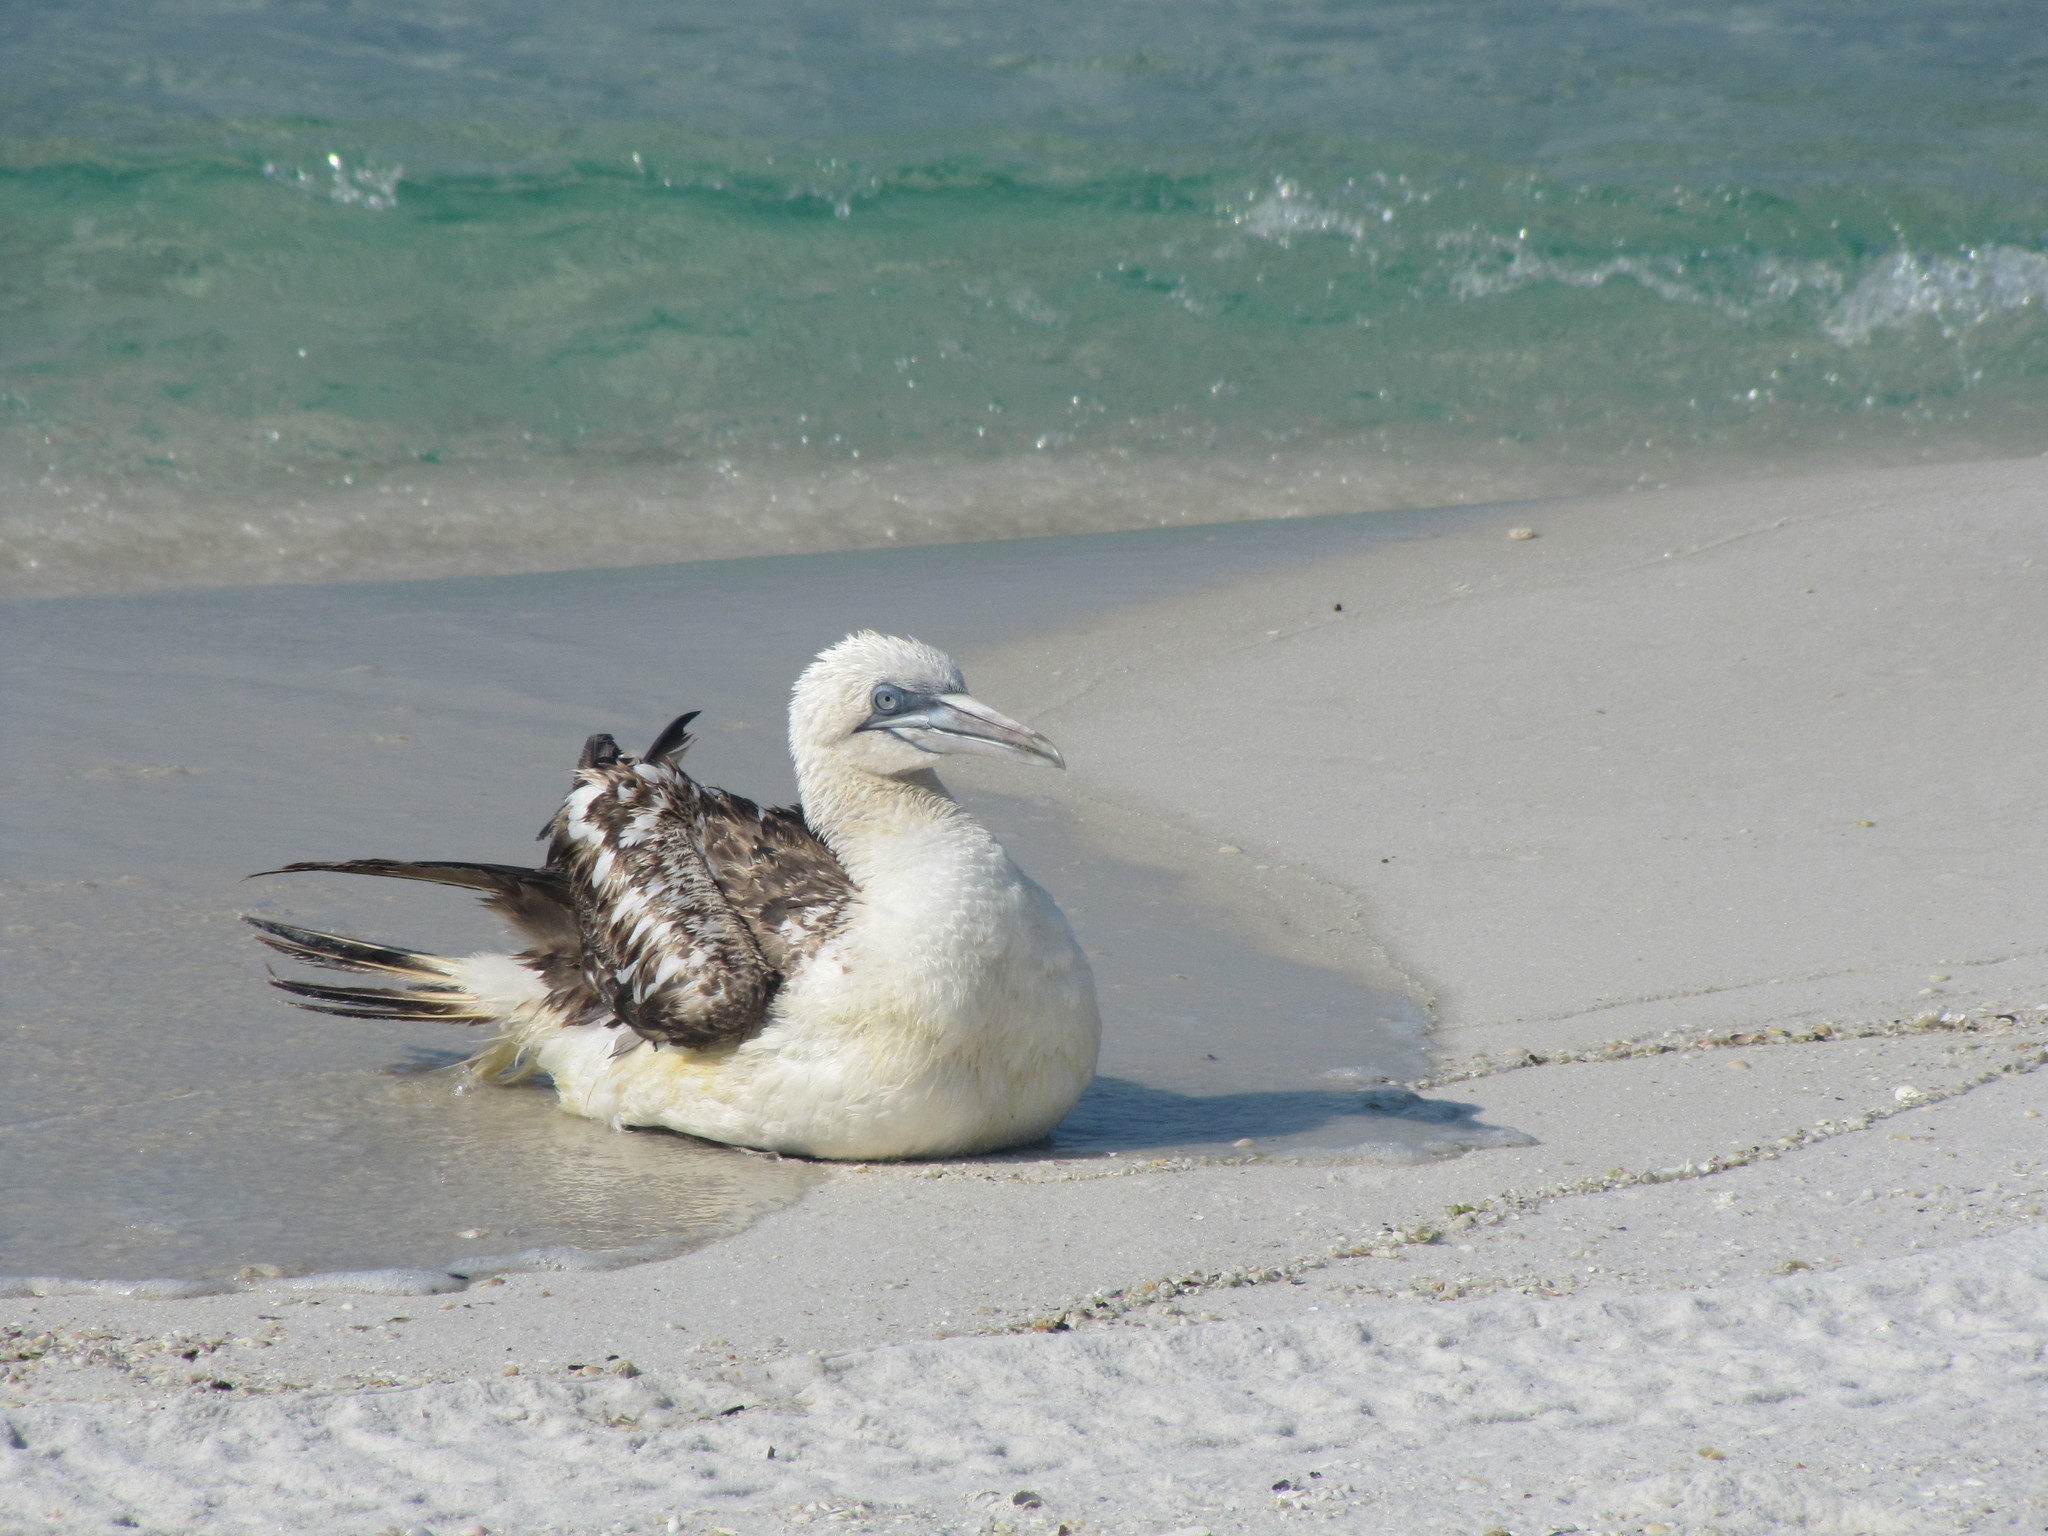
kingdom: Animalia
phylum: Chordata
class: Aves
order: Suliformes
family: Sulidae
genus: Morus
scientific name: Morus bassanus
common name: Northern gannet
